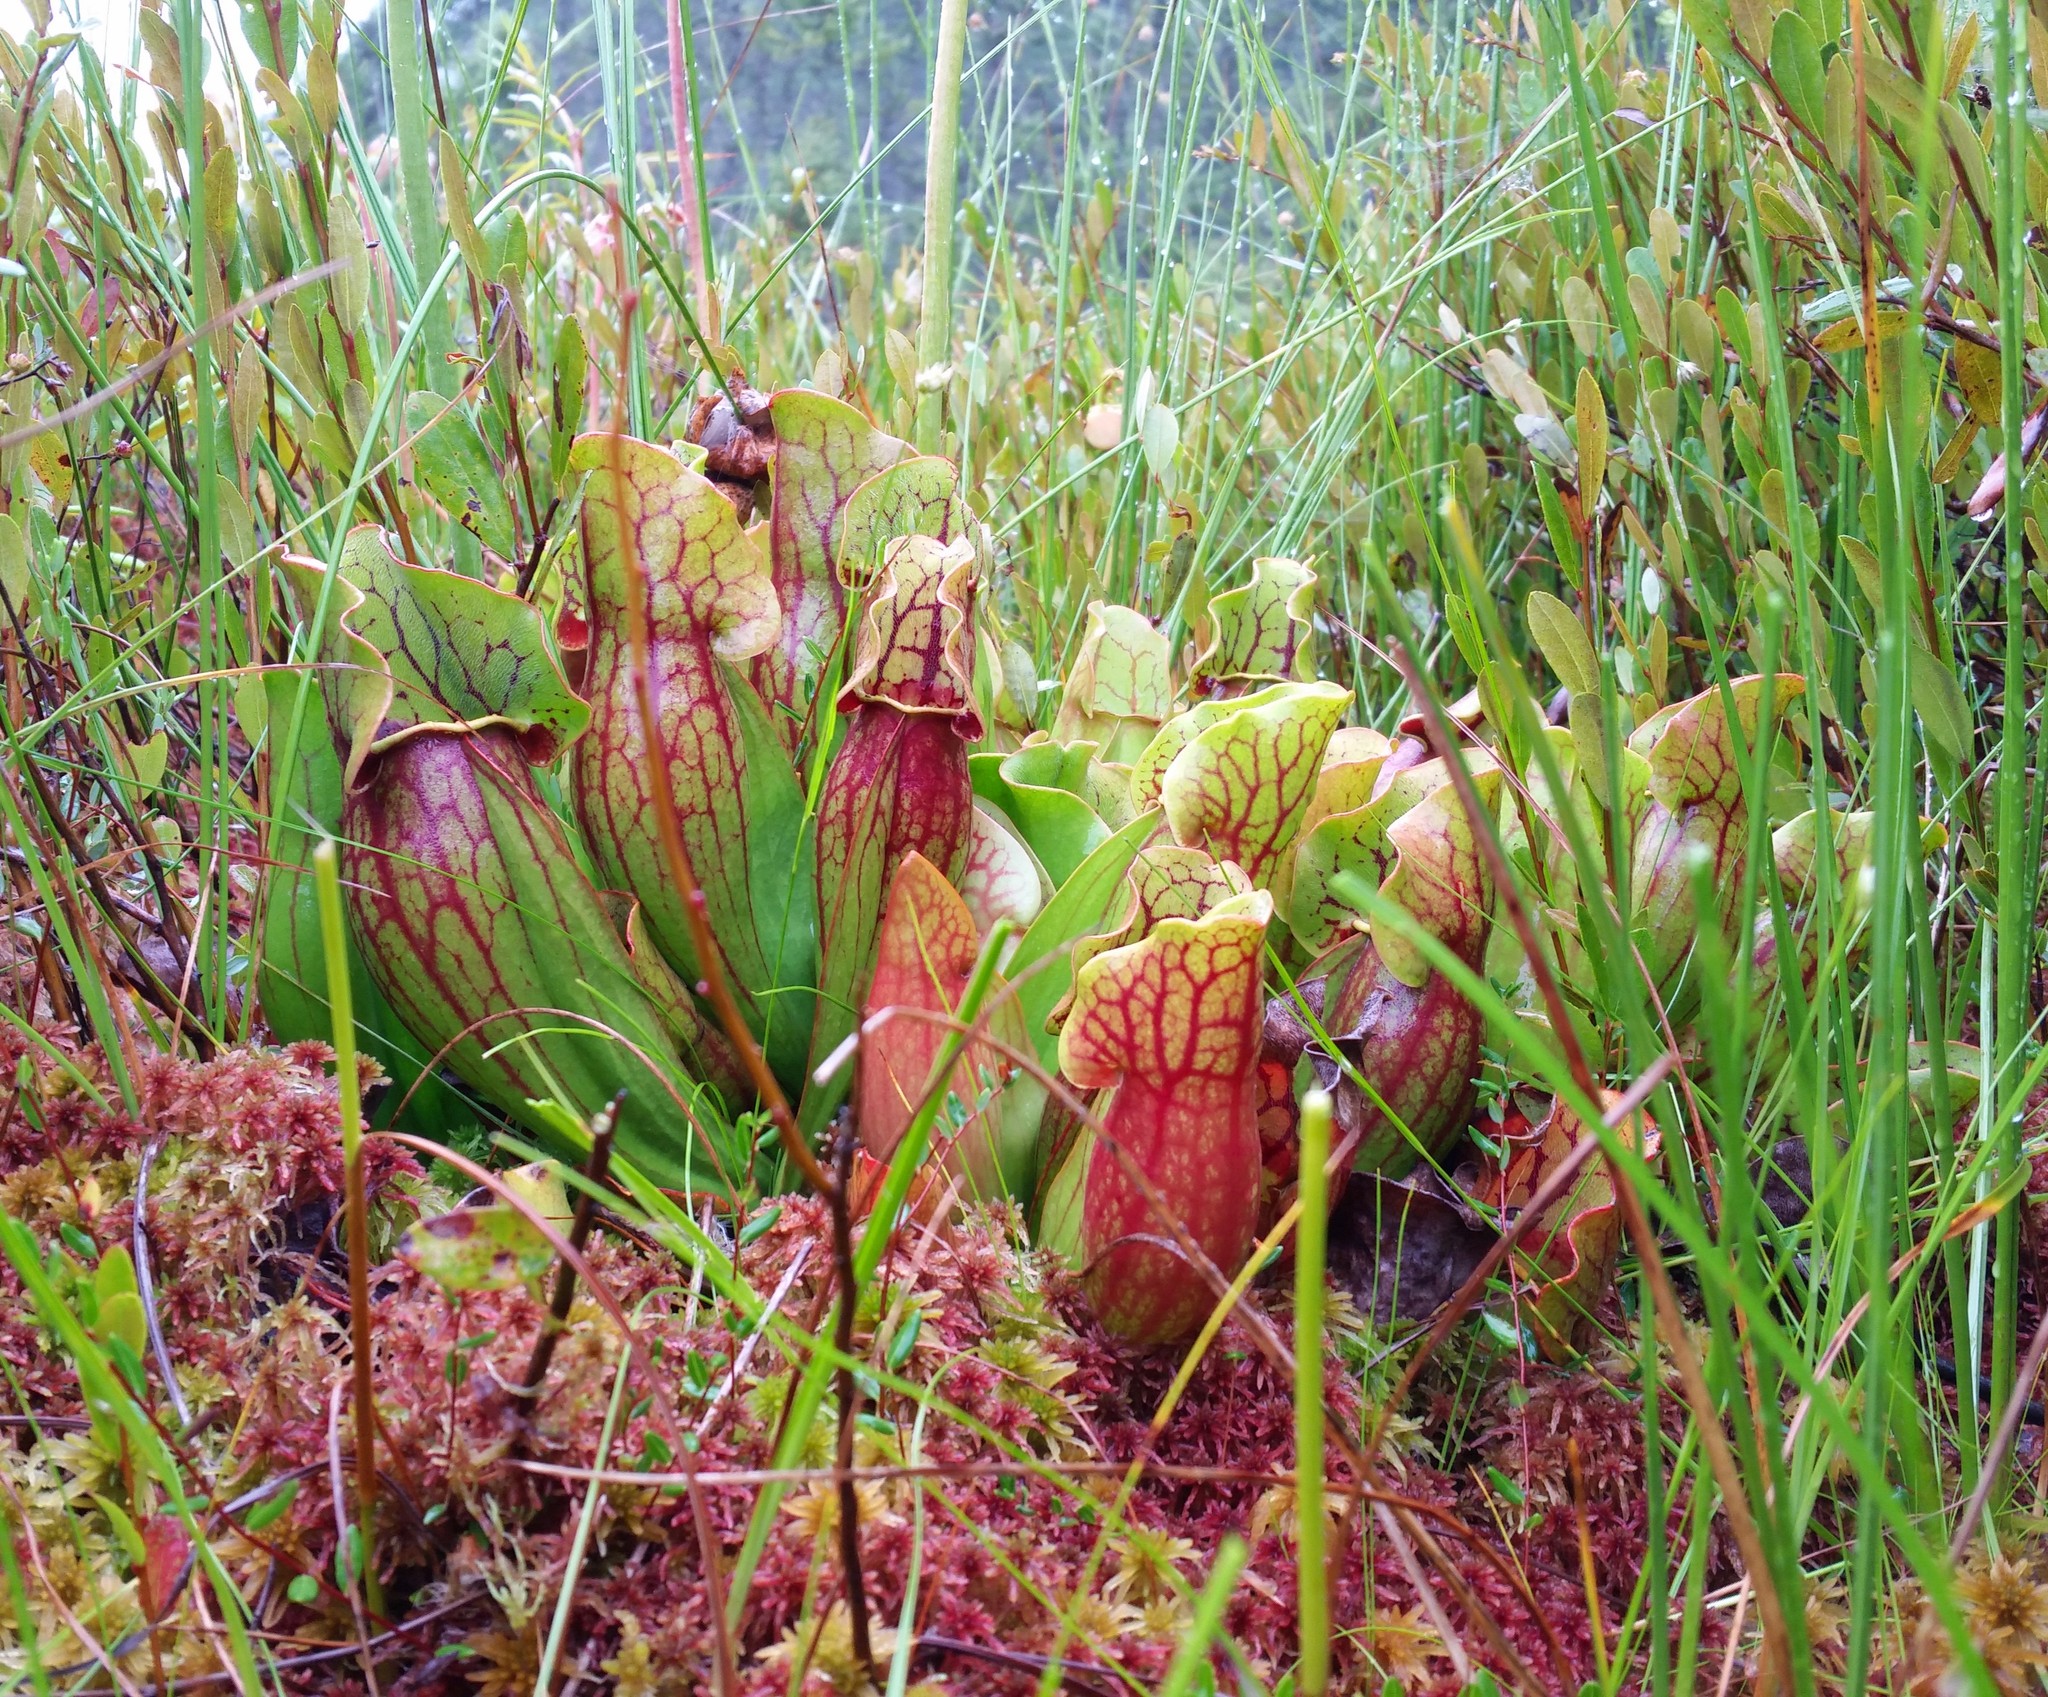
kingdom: Plantae
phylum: Tracheophyta
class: Magnoliopsida
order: Ericales
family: Sarraceniaceae
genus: Sarracenia
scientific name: Sarracenia purpurea
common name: Pitcherplant
